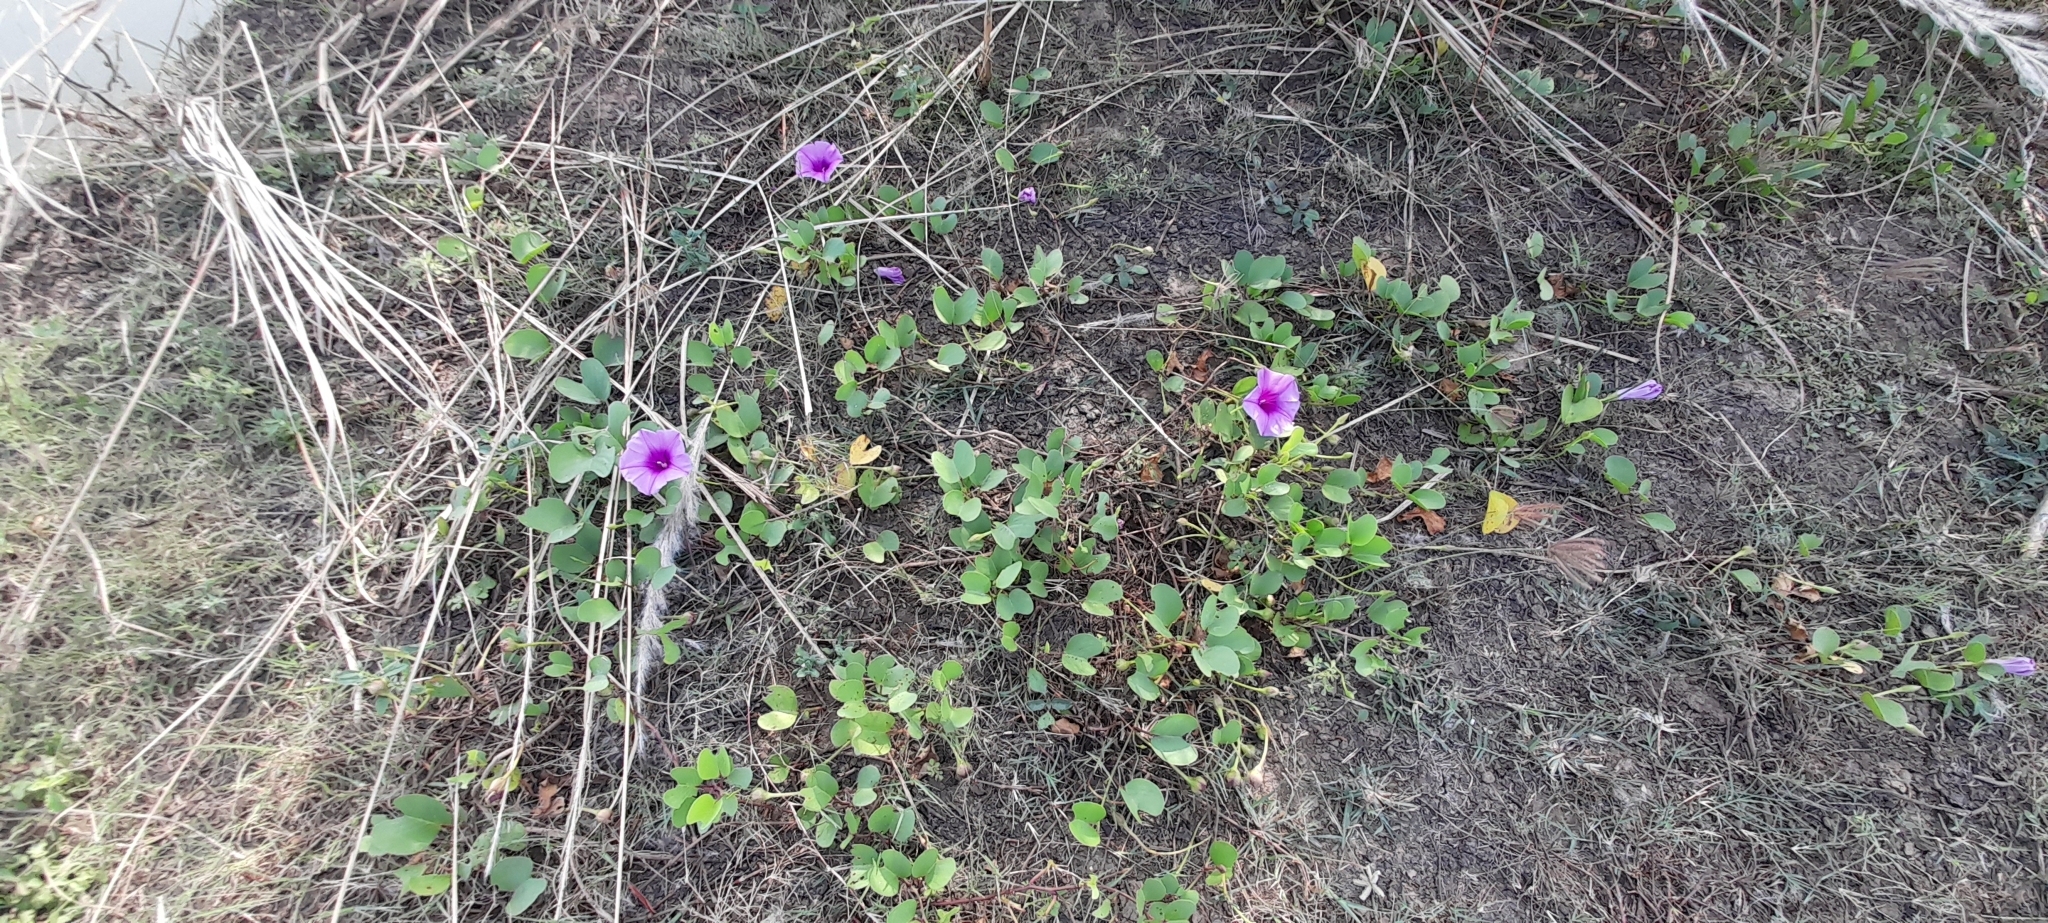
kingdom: Plantae
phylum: Tracheophyta
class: Magnoliopsida
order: Solanales
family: Convolvulaceae
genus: Ipomoea
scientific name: Ipomoea pes-caprae
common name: Beach morning glory
